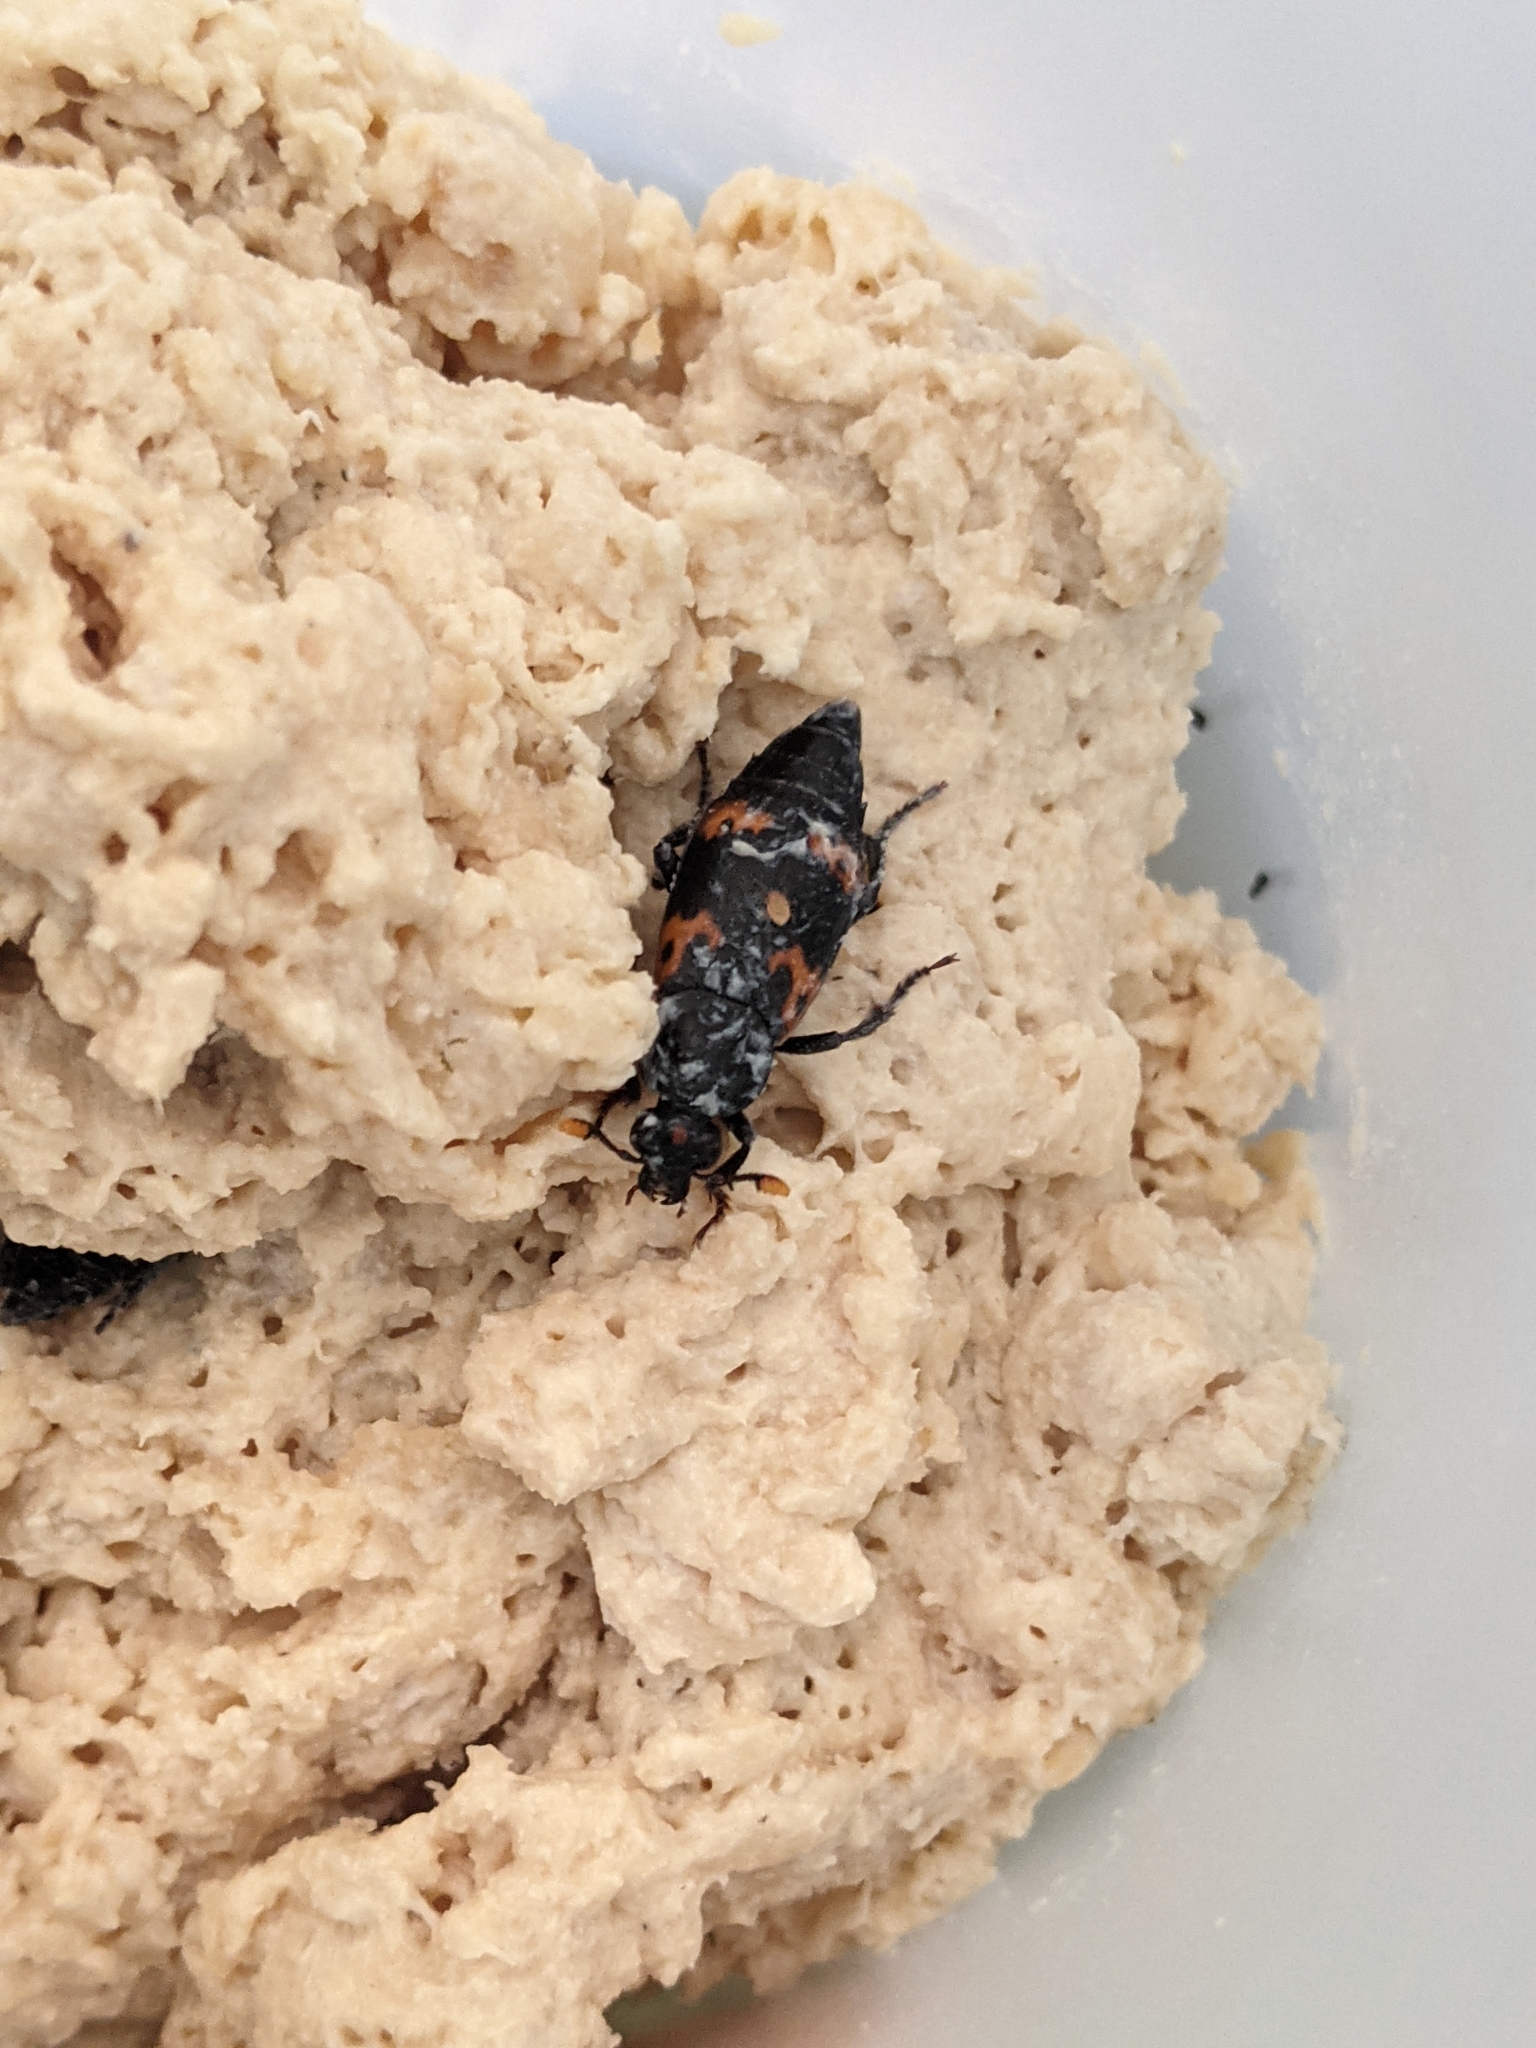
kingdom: Animalia
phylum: Arthropoda
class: Insecta
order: Coleoptera
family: Staphylinidae
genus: Nicrophorus
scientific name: Nicrophorus nepalensis
